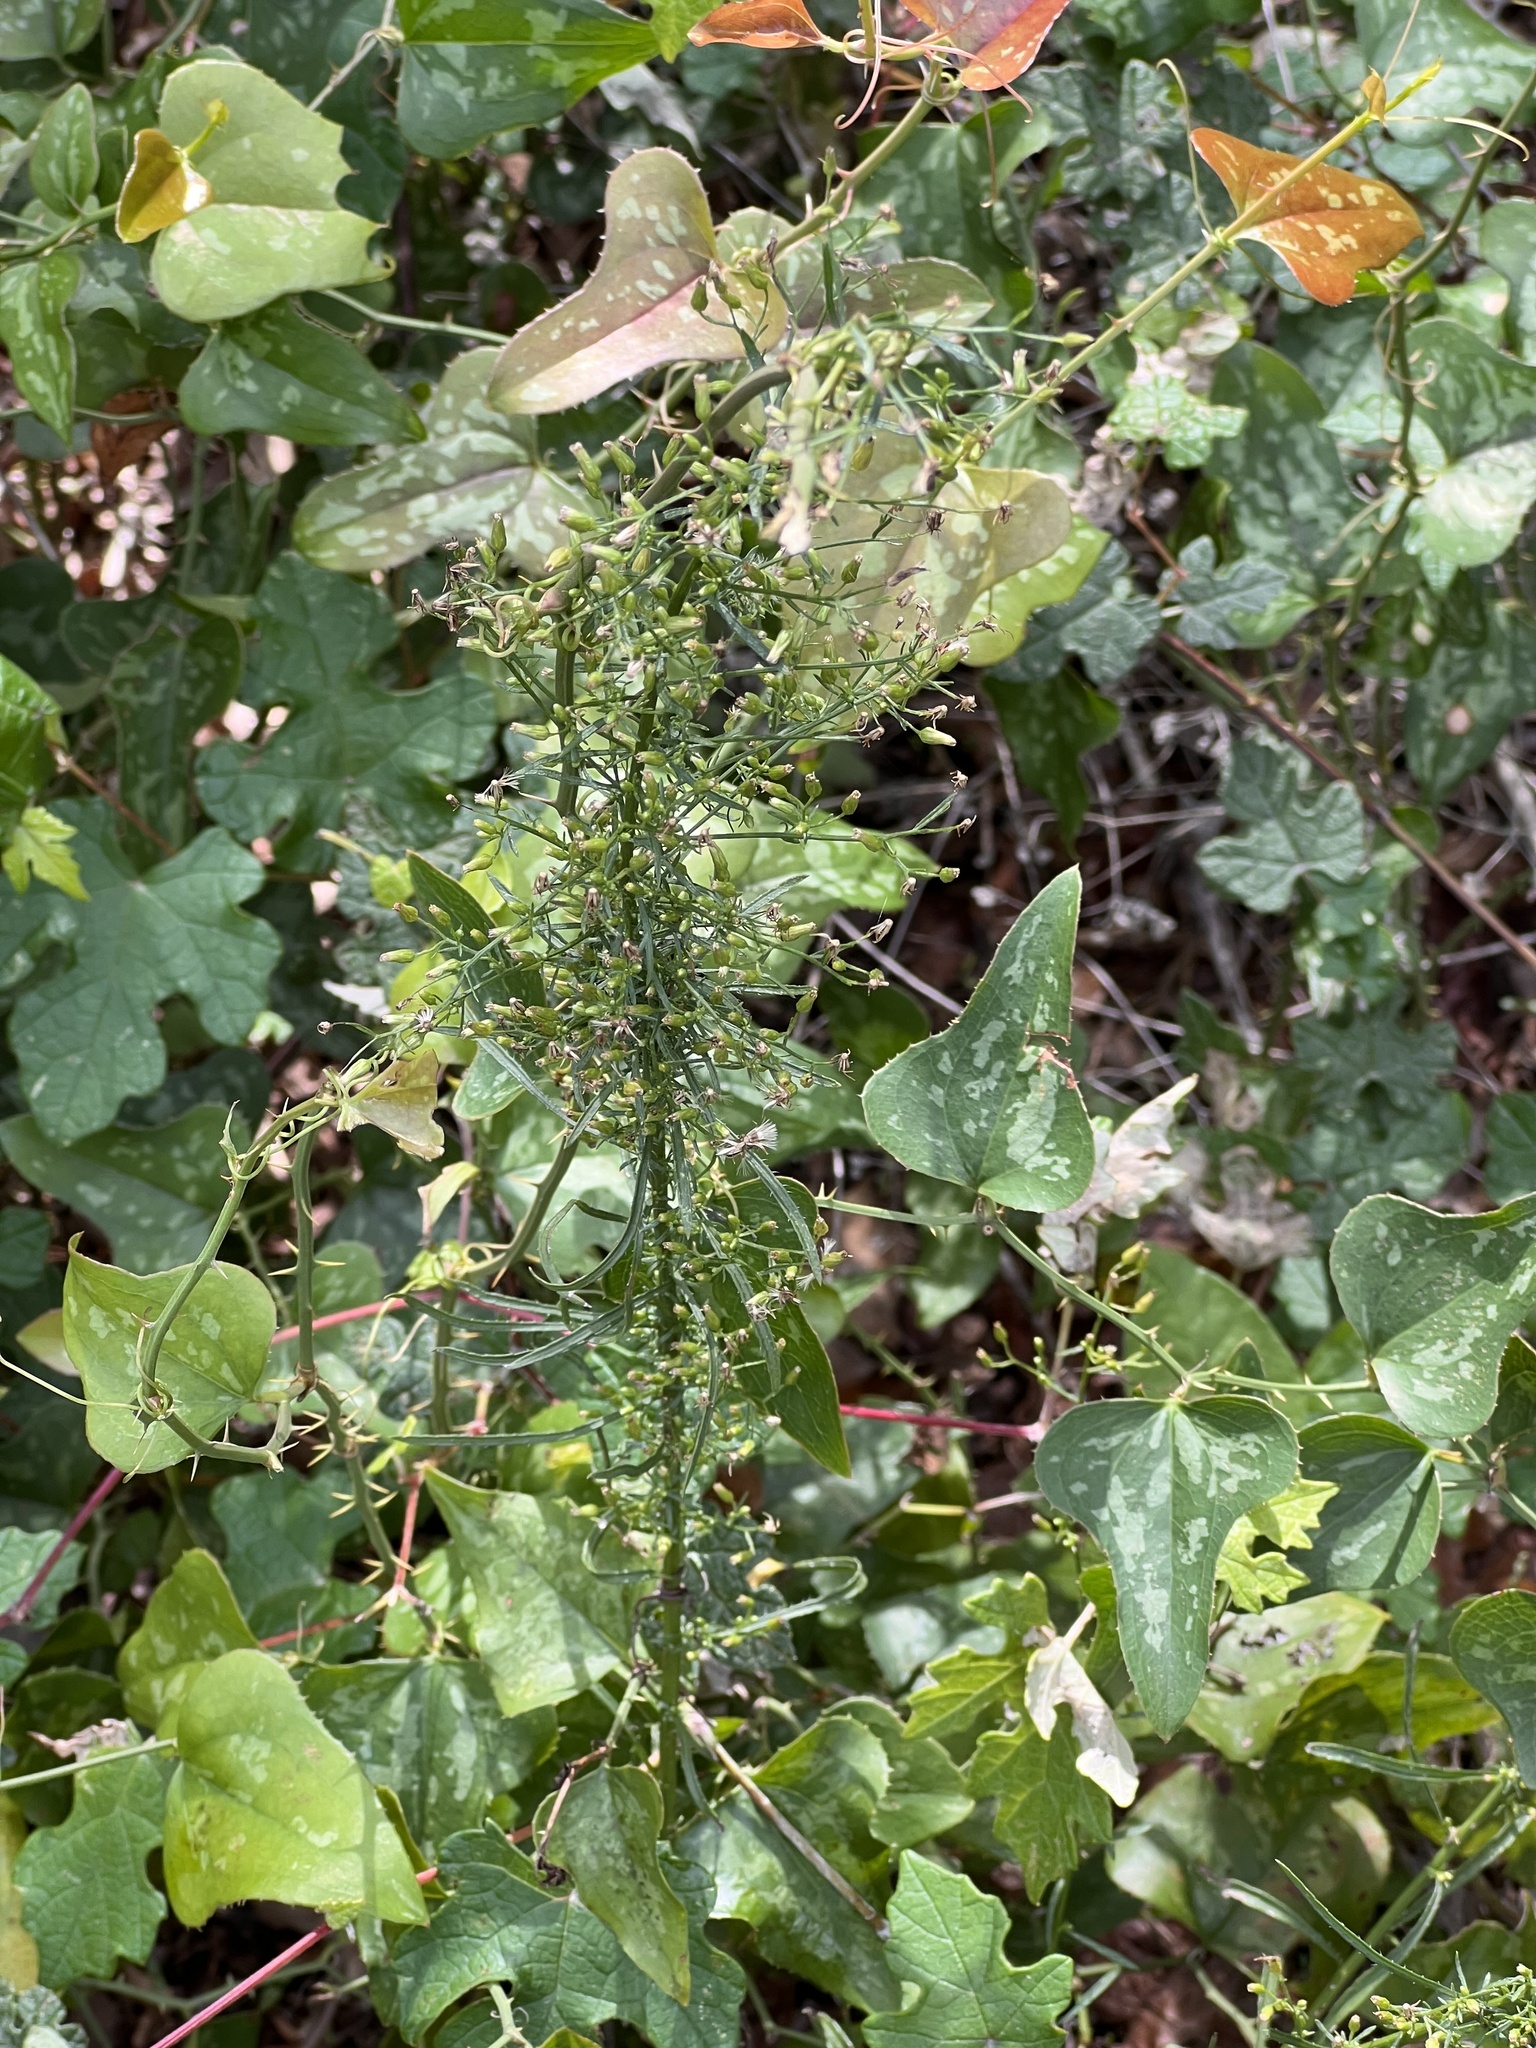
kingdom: Plantae
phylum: Tracheophyta
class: Magnoliopsida
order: Asterales
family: Asteraceae
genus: Erigeron
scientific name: Erigeron canadensis
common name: Canadian fleabane
